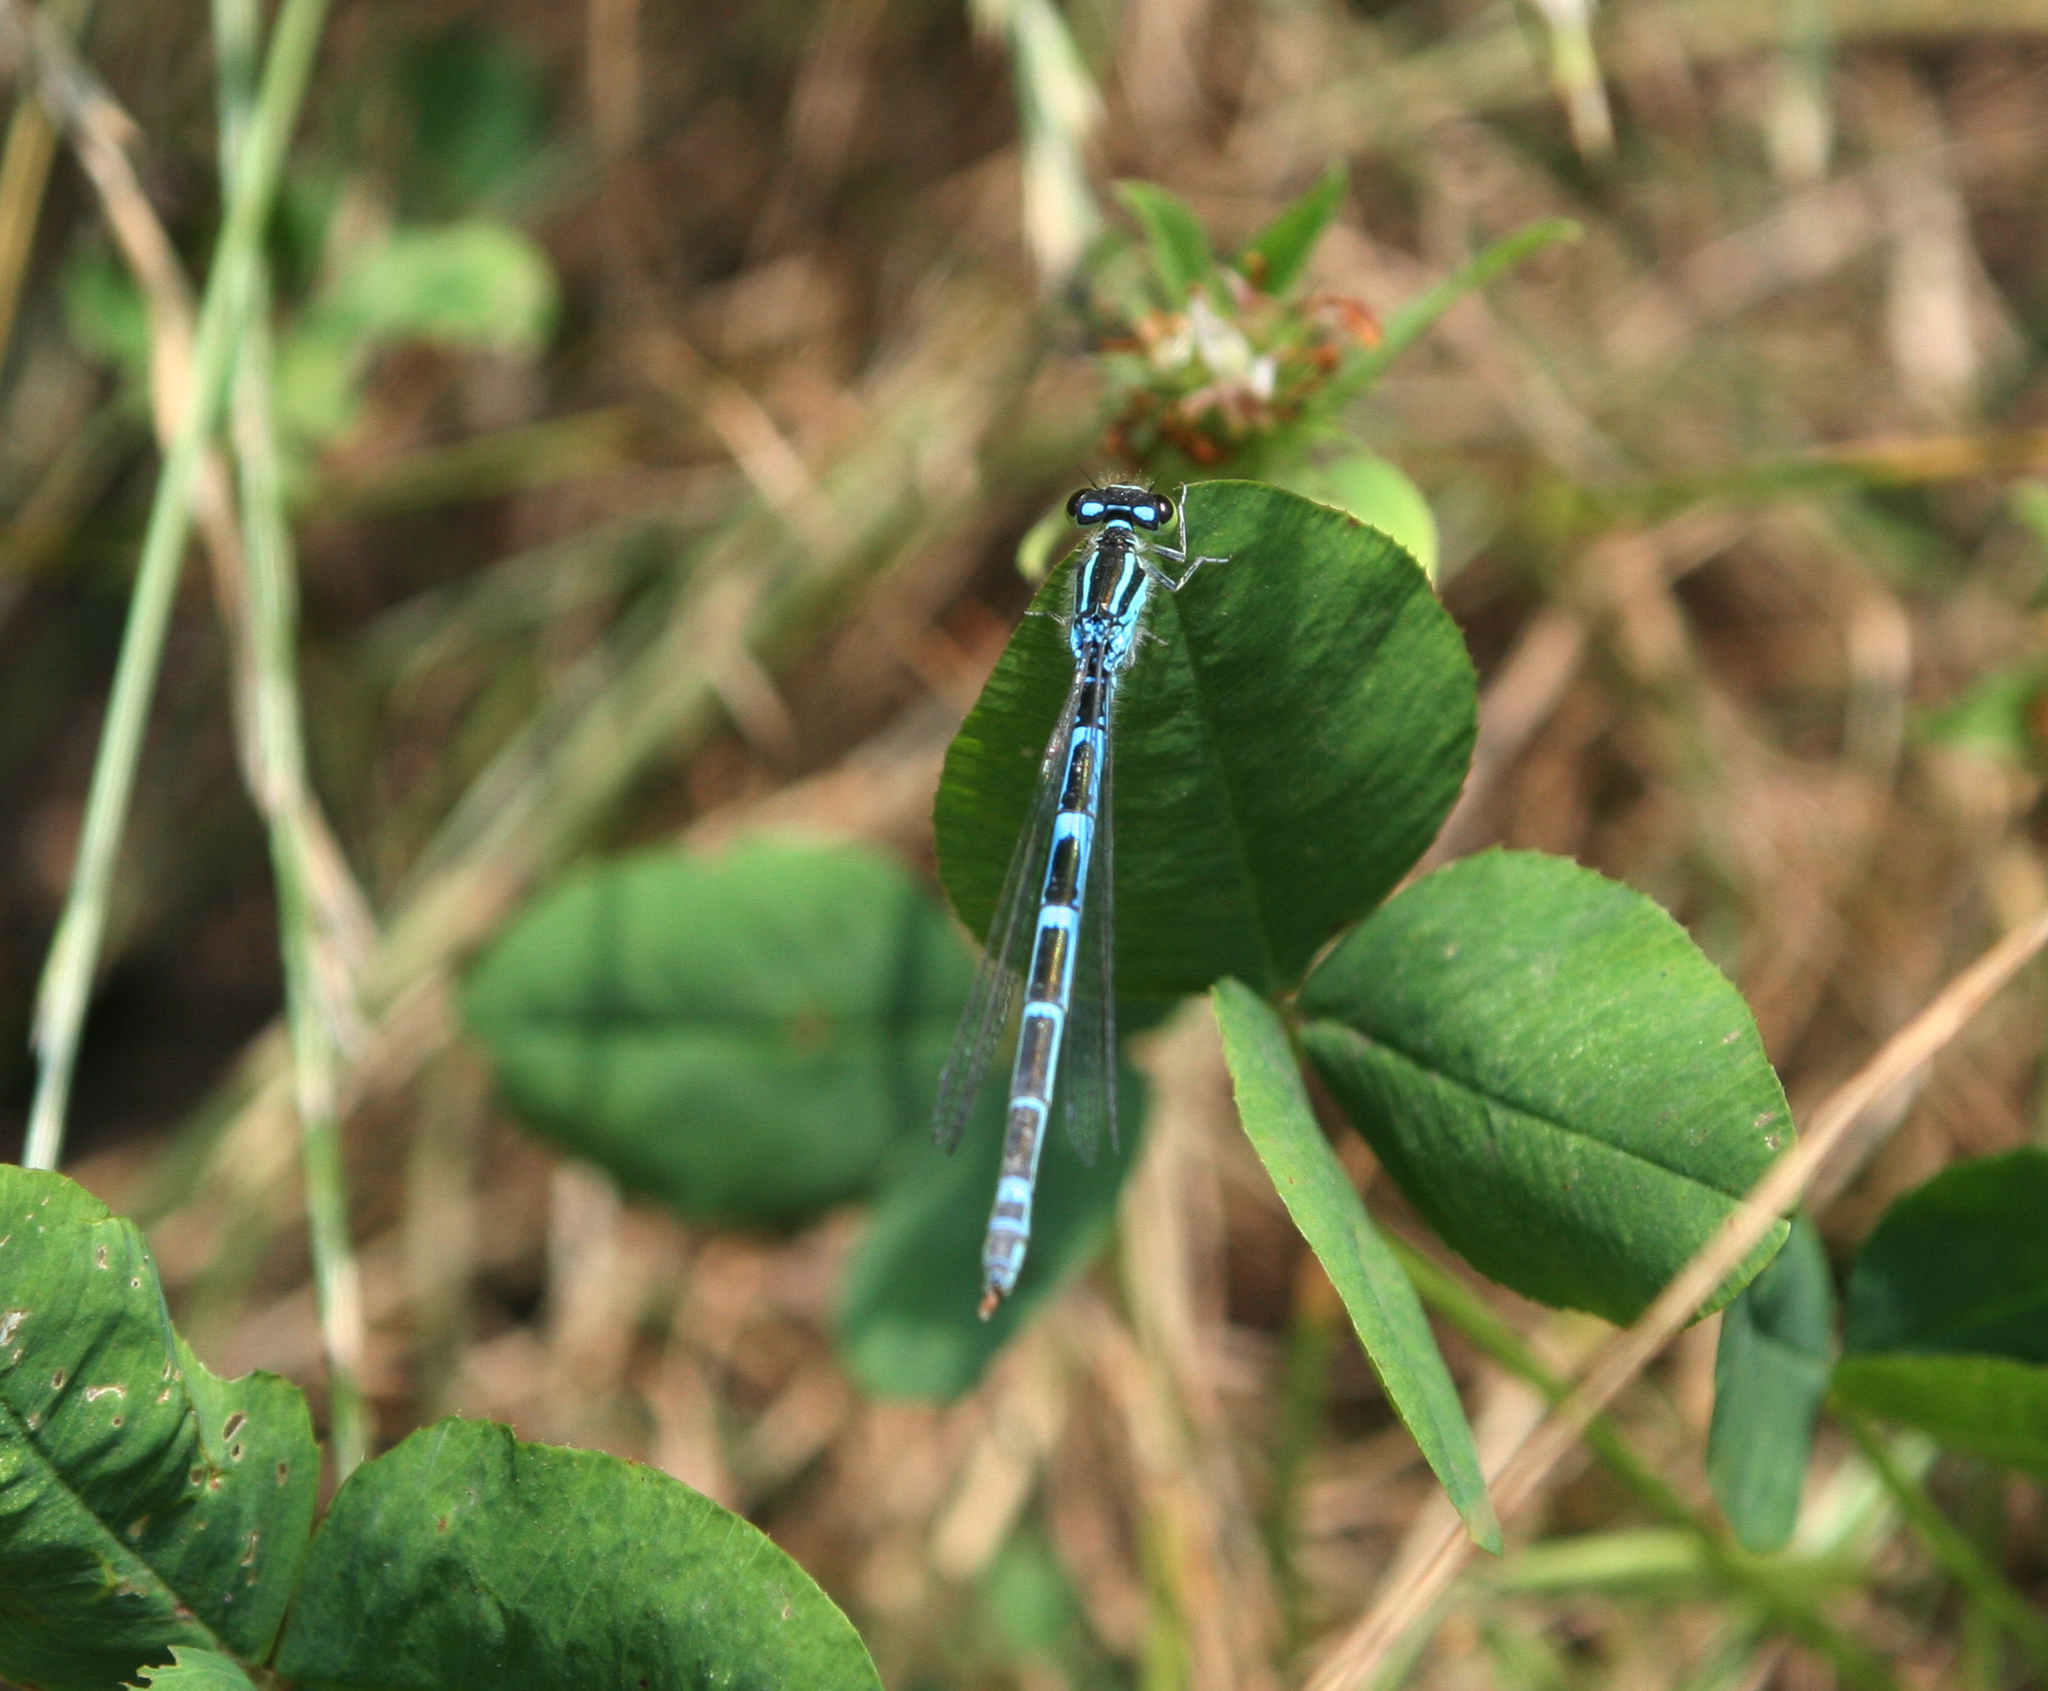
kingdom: Animalia
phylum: Arthropoda
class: Insecta
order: Odonata
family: Coenagrionidae
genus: Coenagrion
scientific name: Coenagrion scitulum
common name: Dainty bluet
